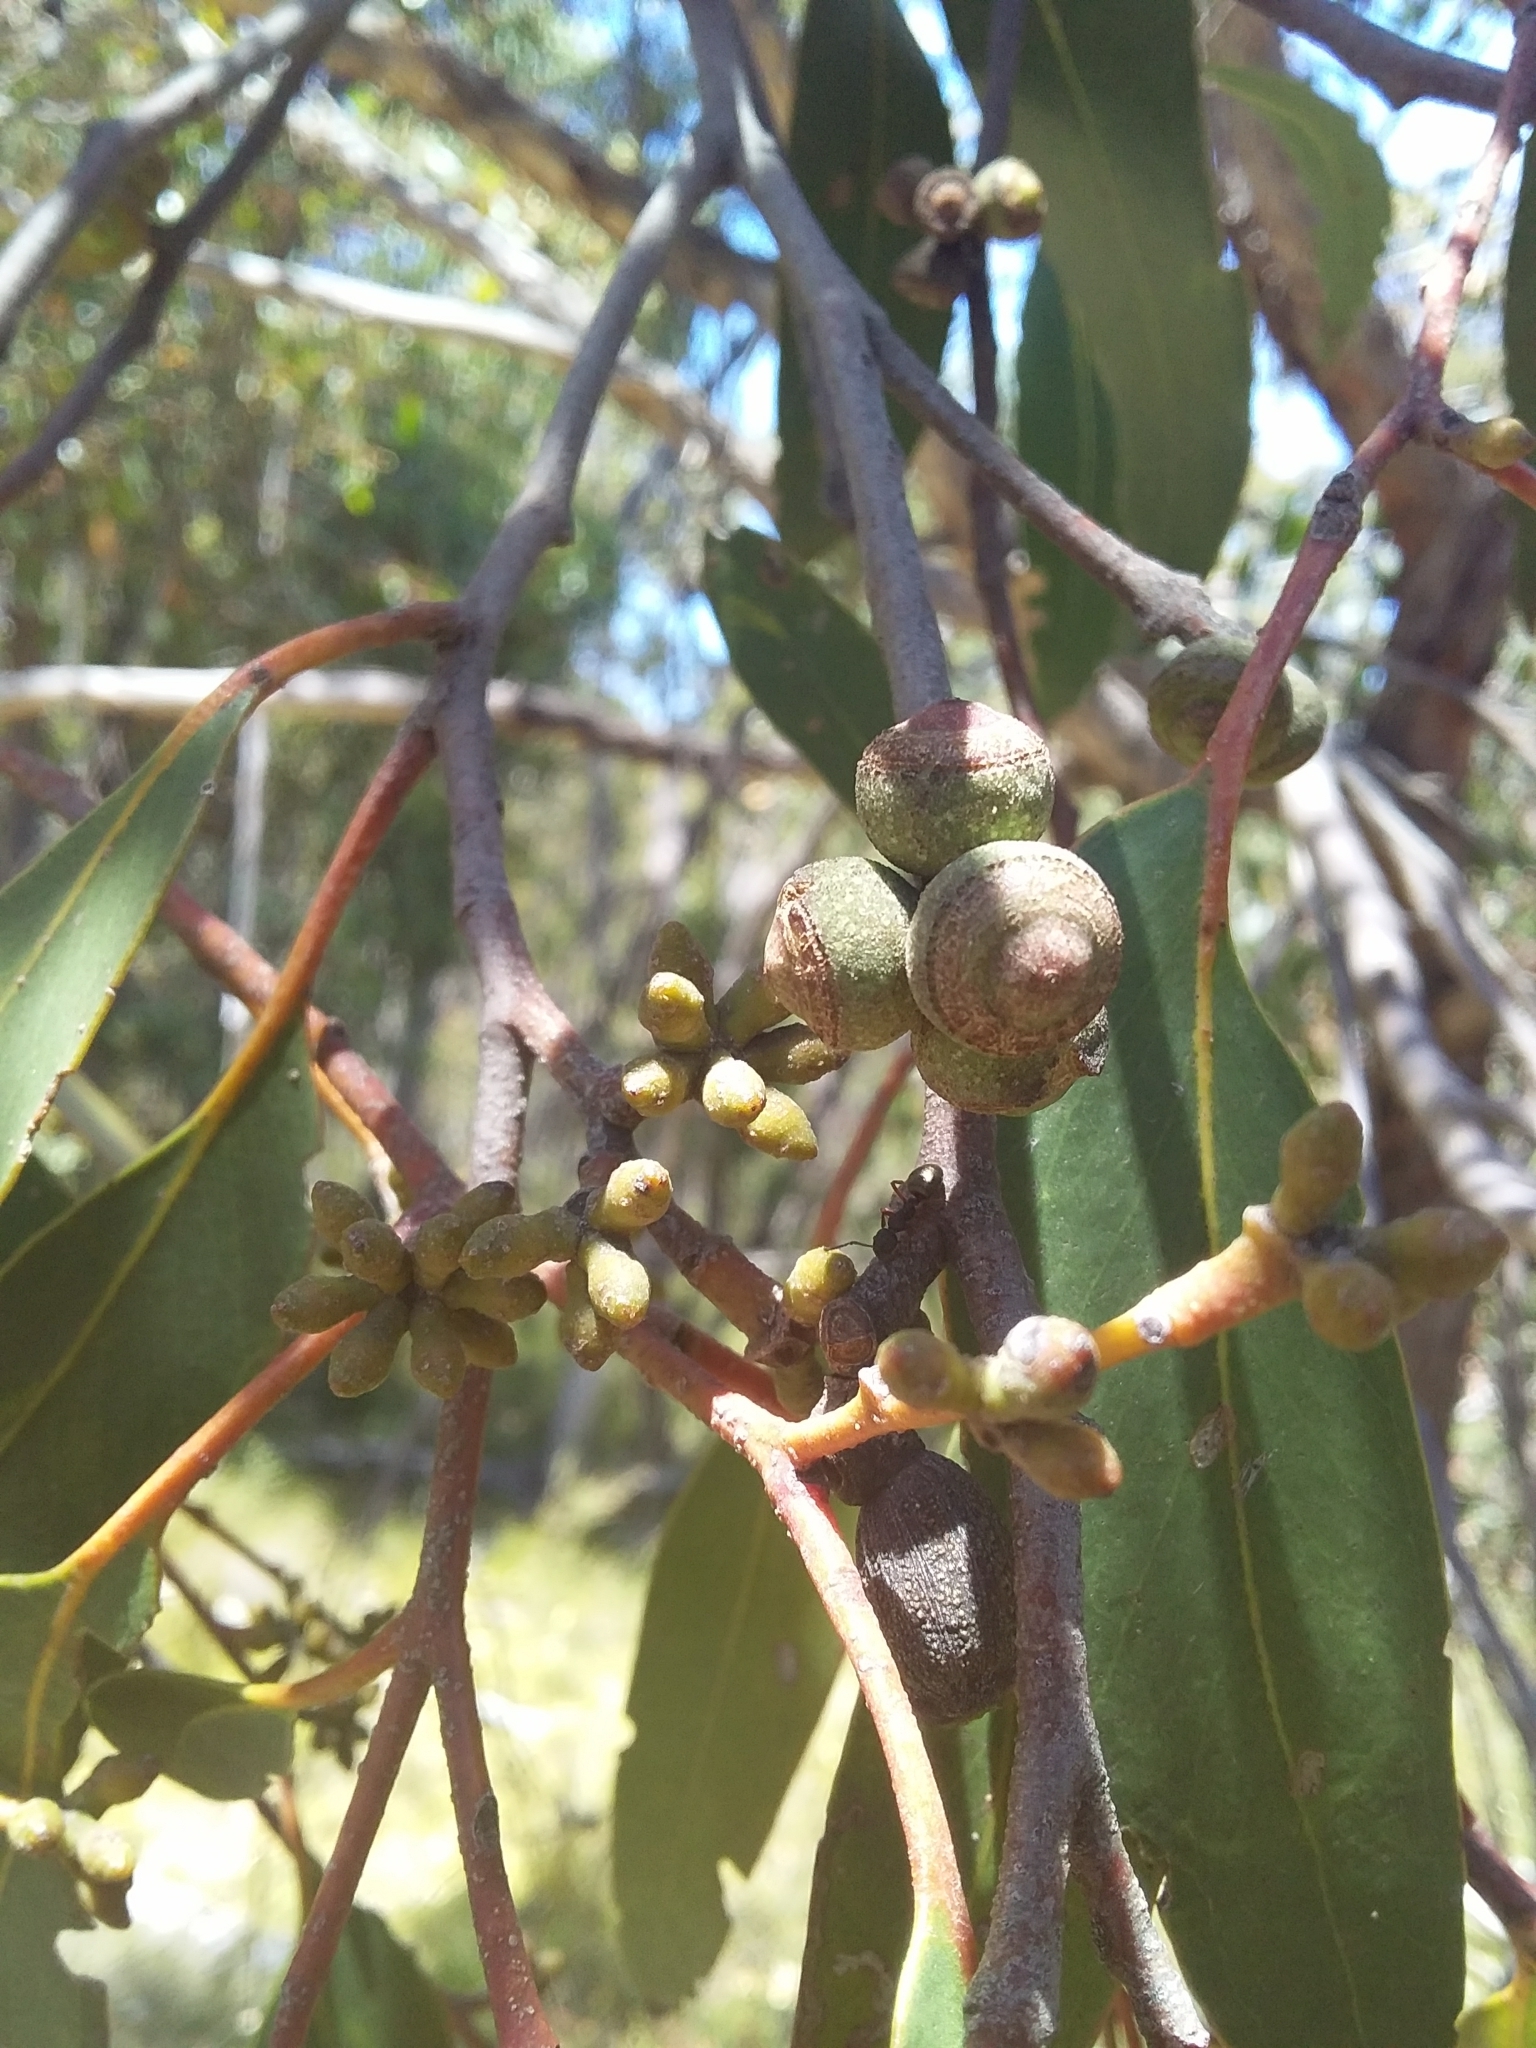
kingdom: Plantae
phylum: Tracheophyta
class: Magnoliopsida
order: Myrtales
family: Myrtaceae
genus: Eucalyptus
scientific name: Eucalyptus baxteri
